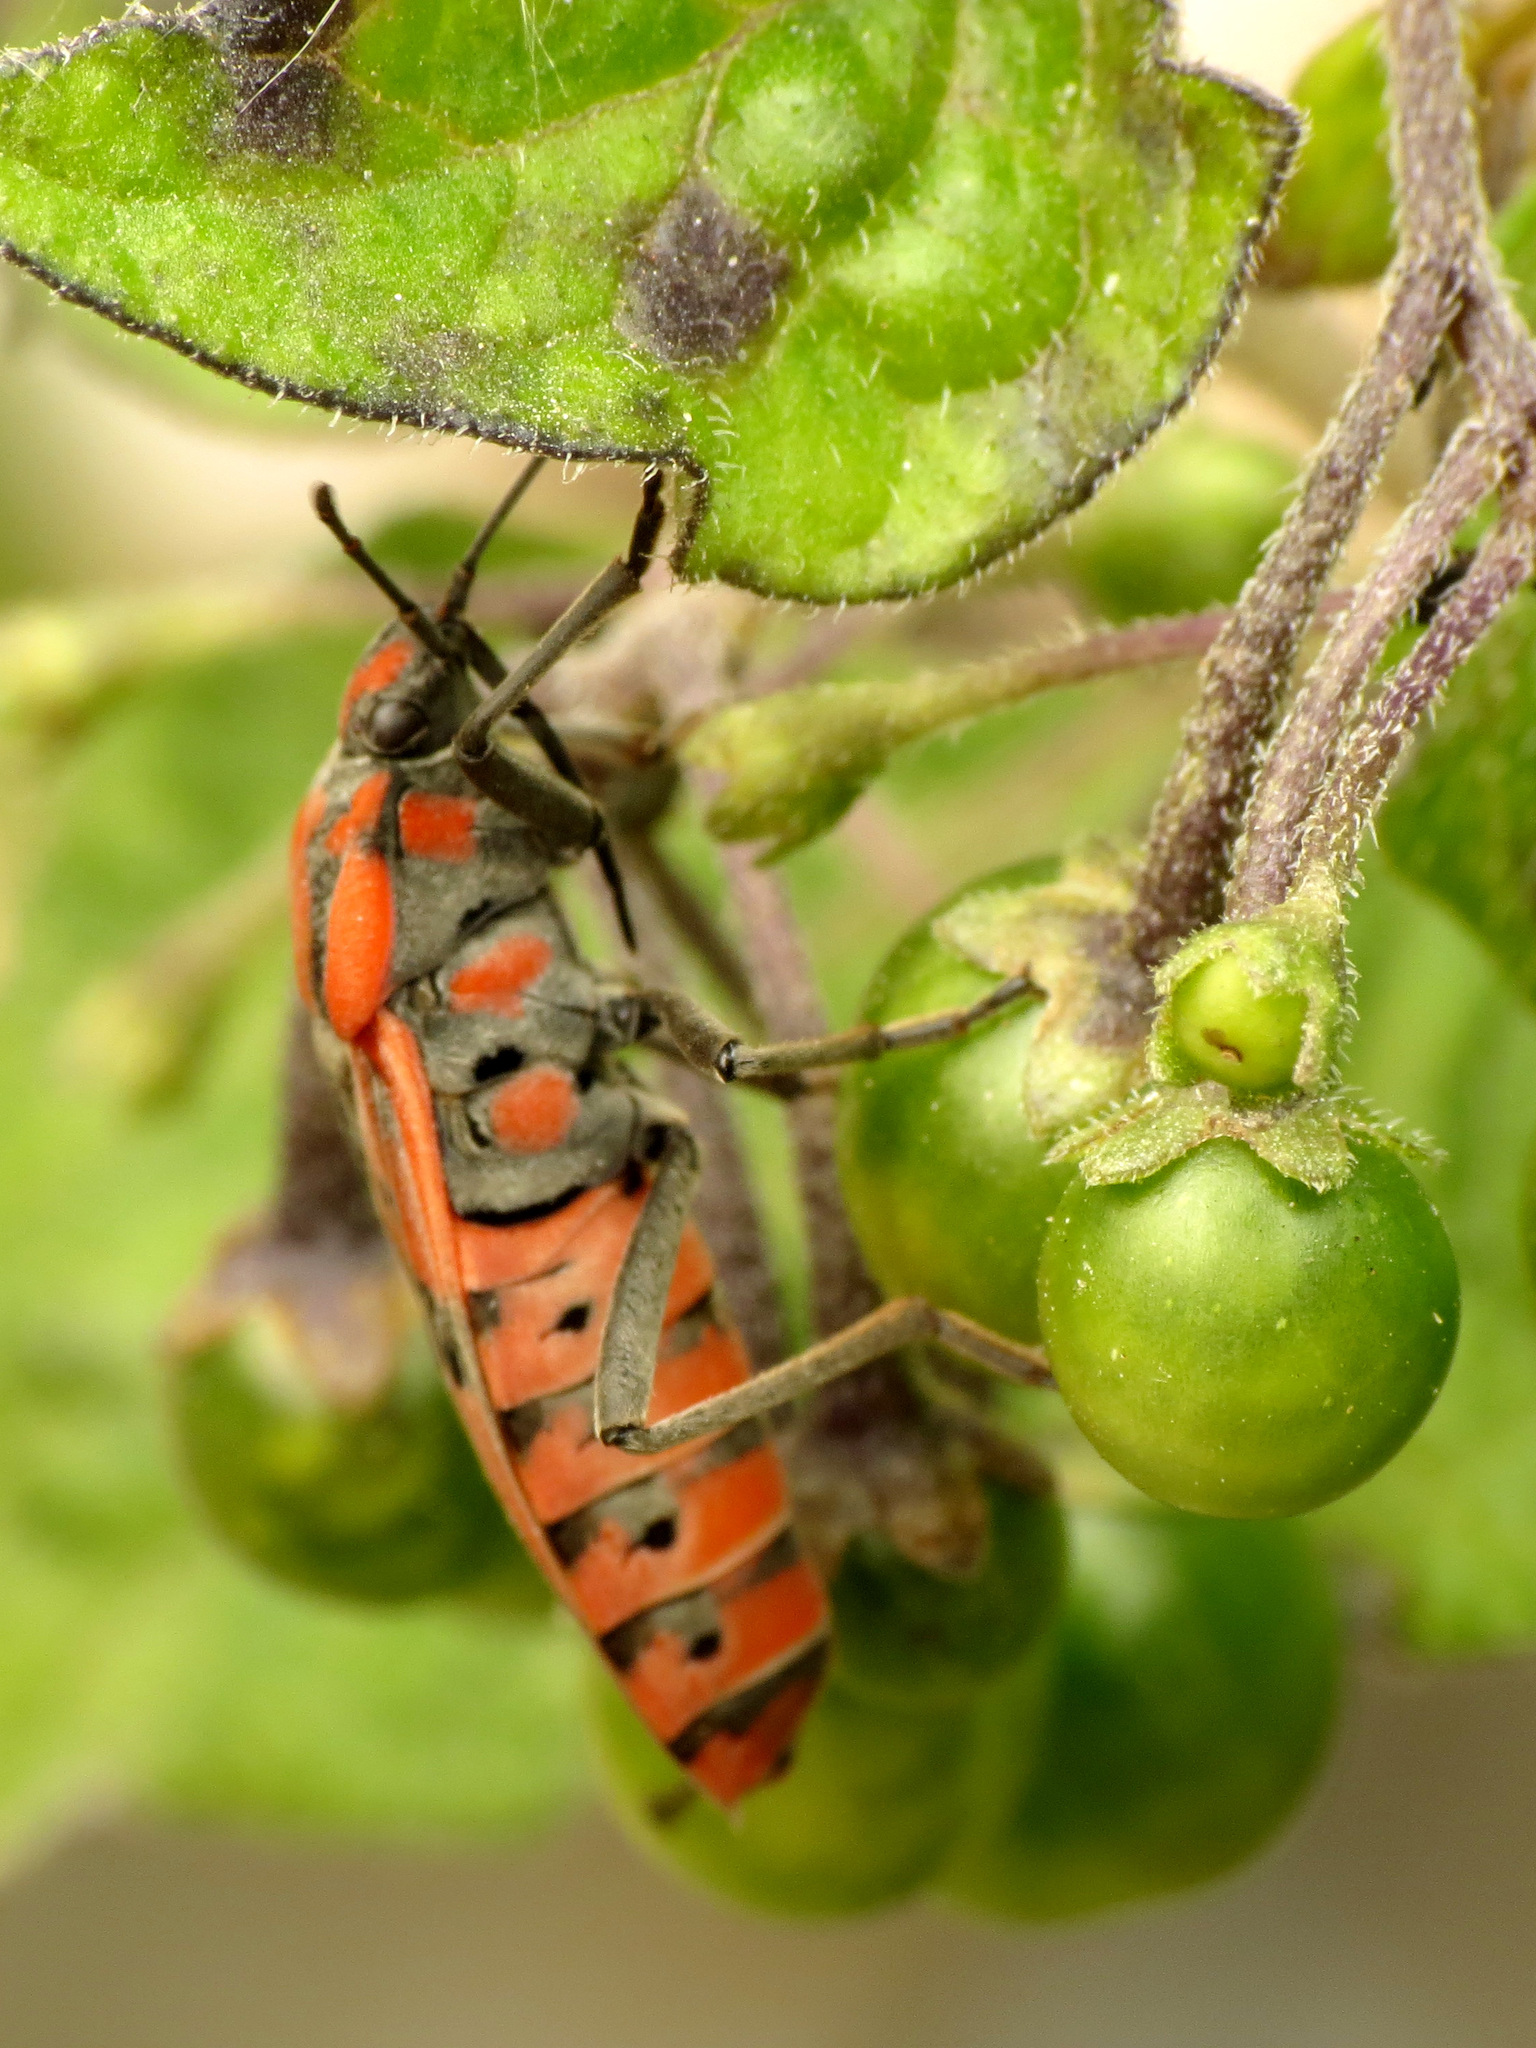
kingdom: Animalia
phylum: Arthropoda
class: Insecta
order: Hemiptera
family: Lygaeidae
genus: Spilostethus
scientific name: Spilostethus pandurus
